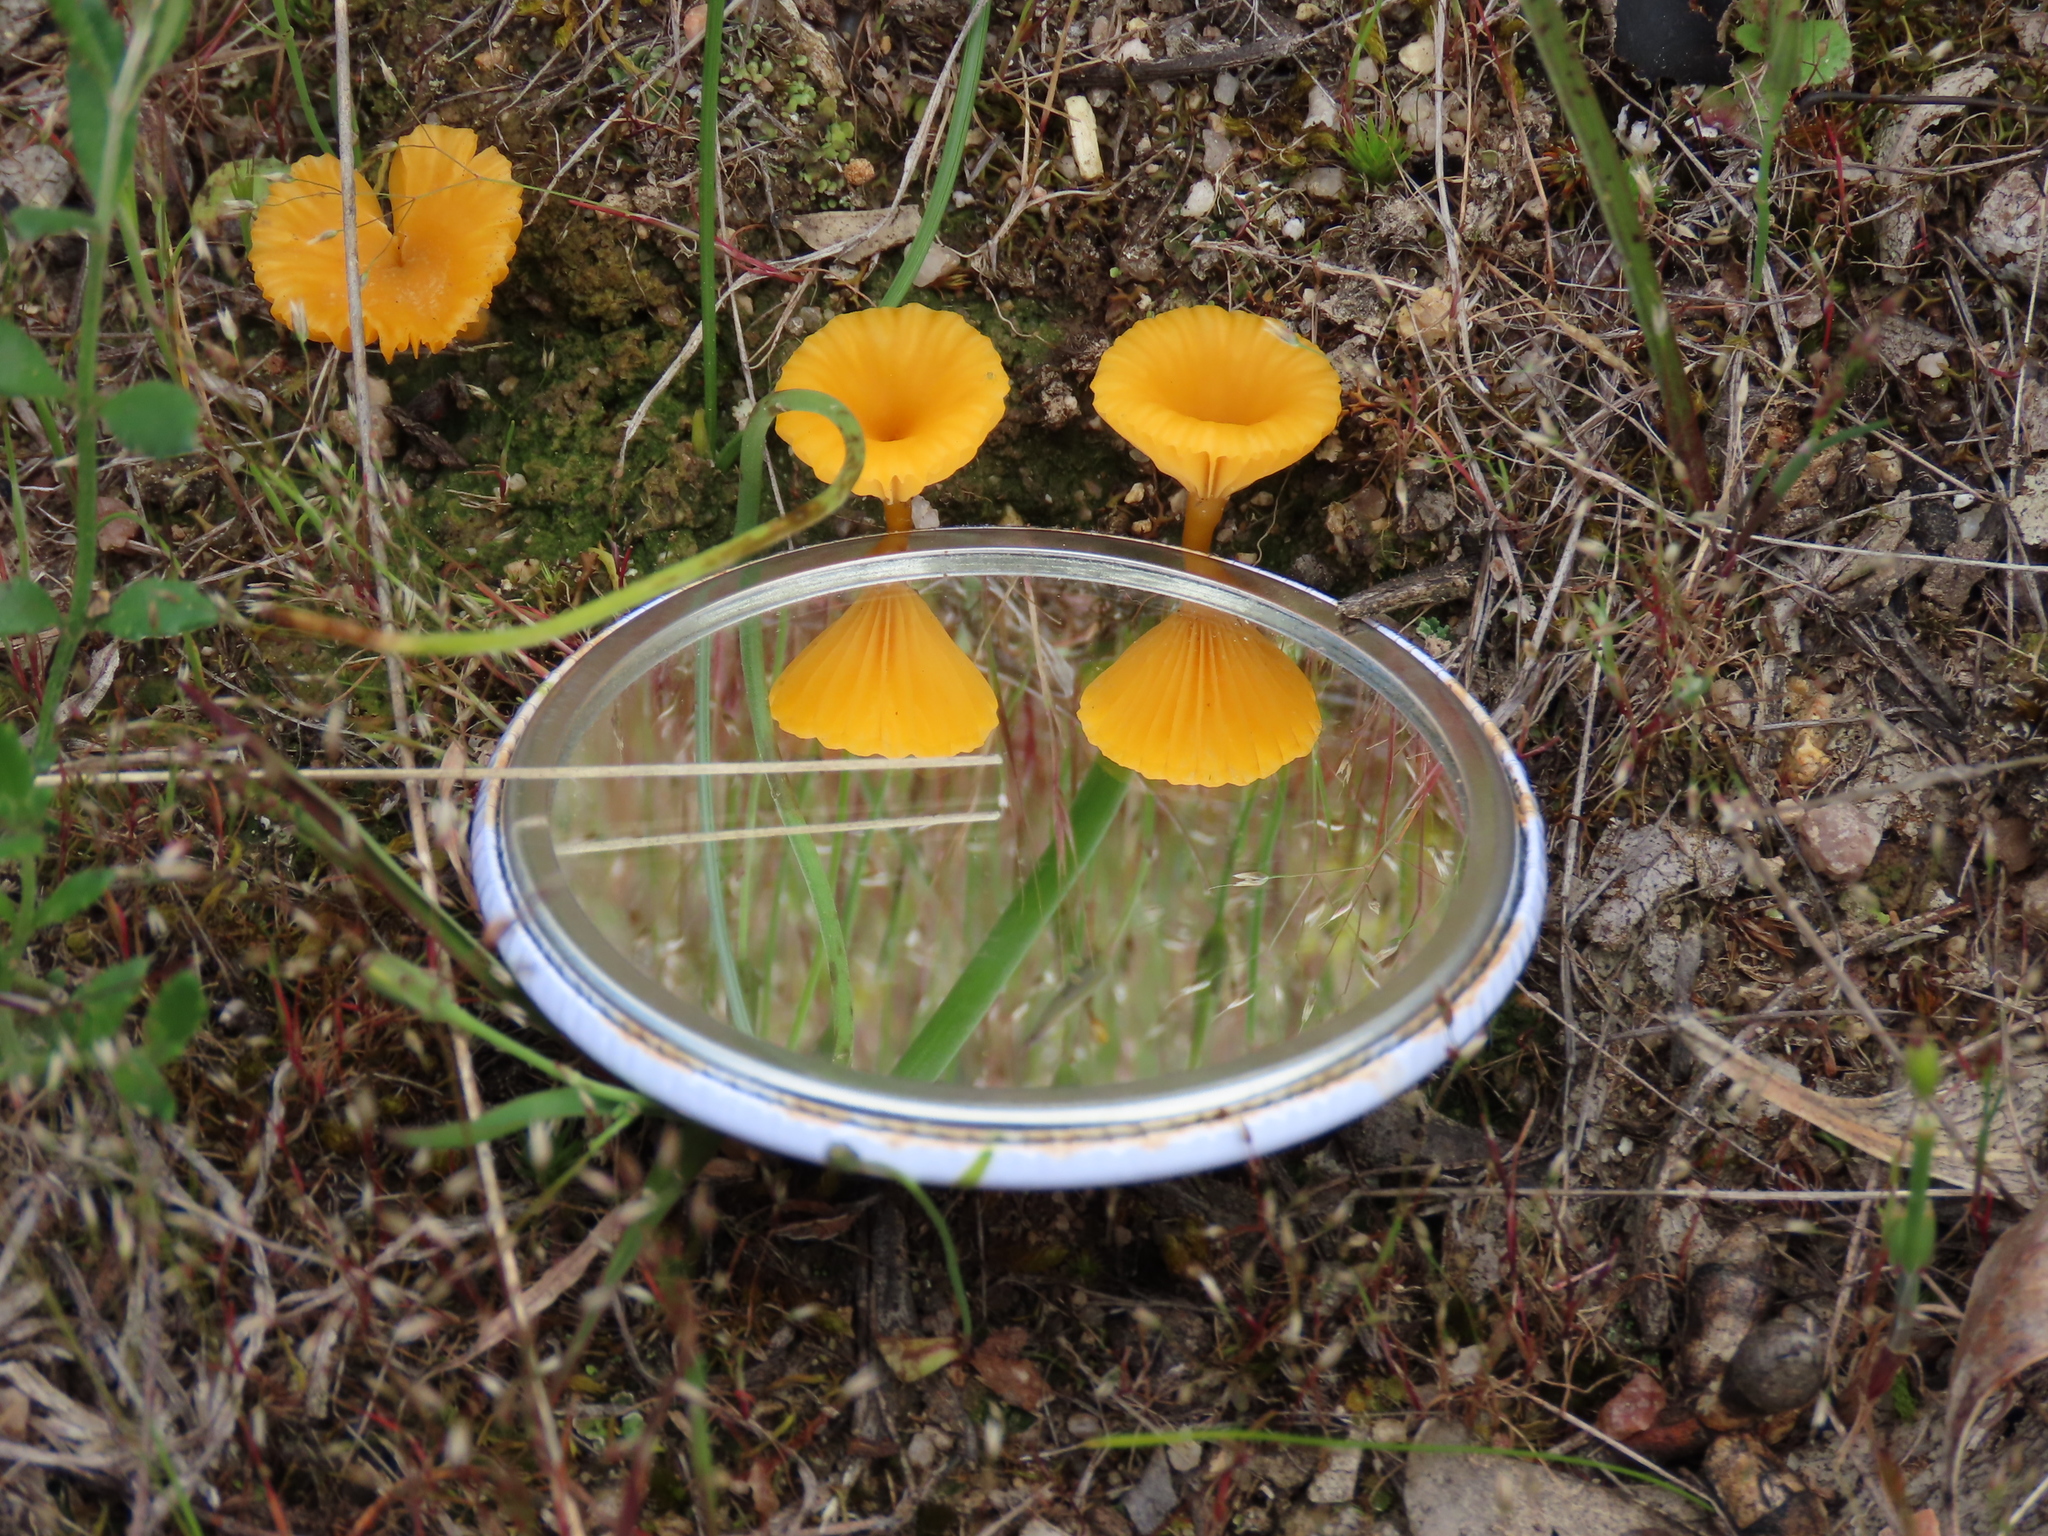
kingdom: Fungi
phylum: Basidiomycota
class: Agaricomycetes
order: Agaricales
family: Hygrophoraceae
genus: Lichenomphalia
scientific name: Lichenomphalia chromacea
